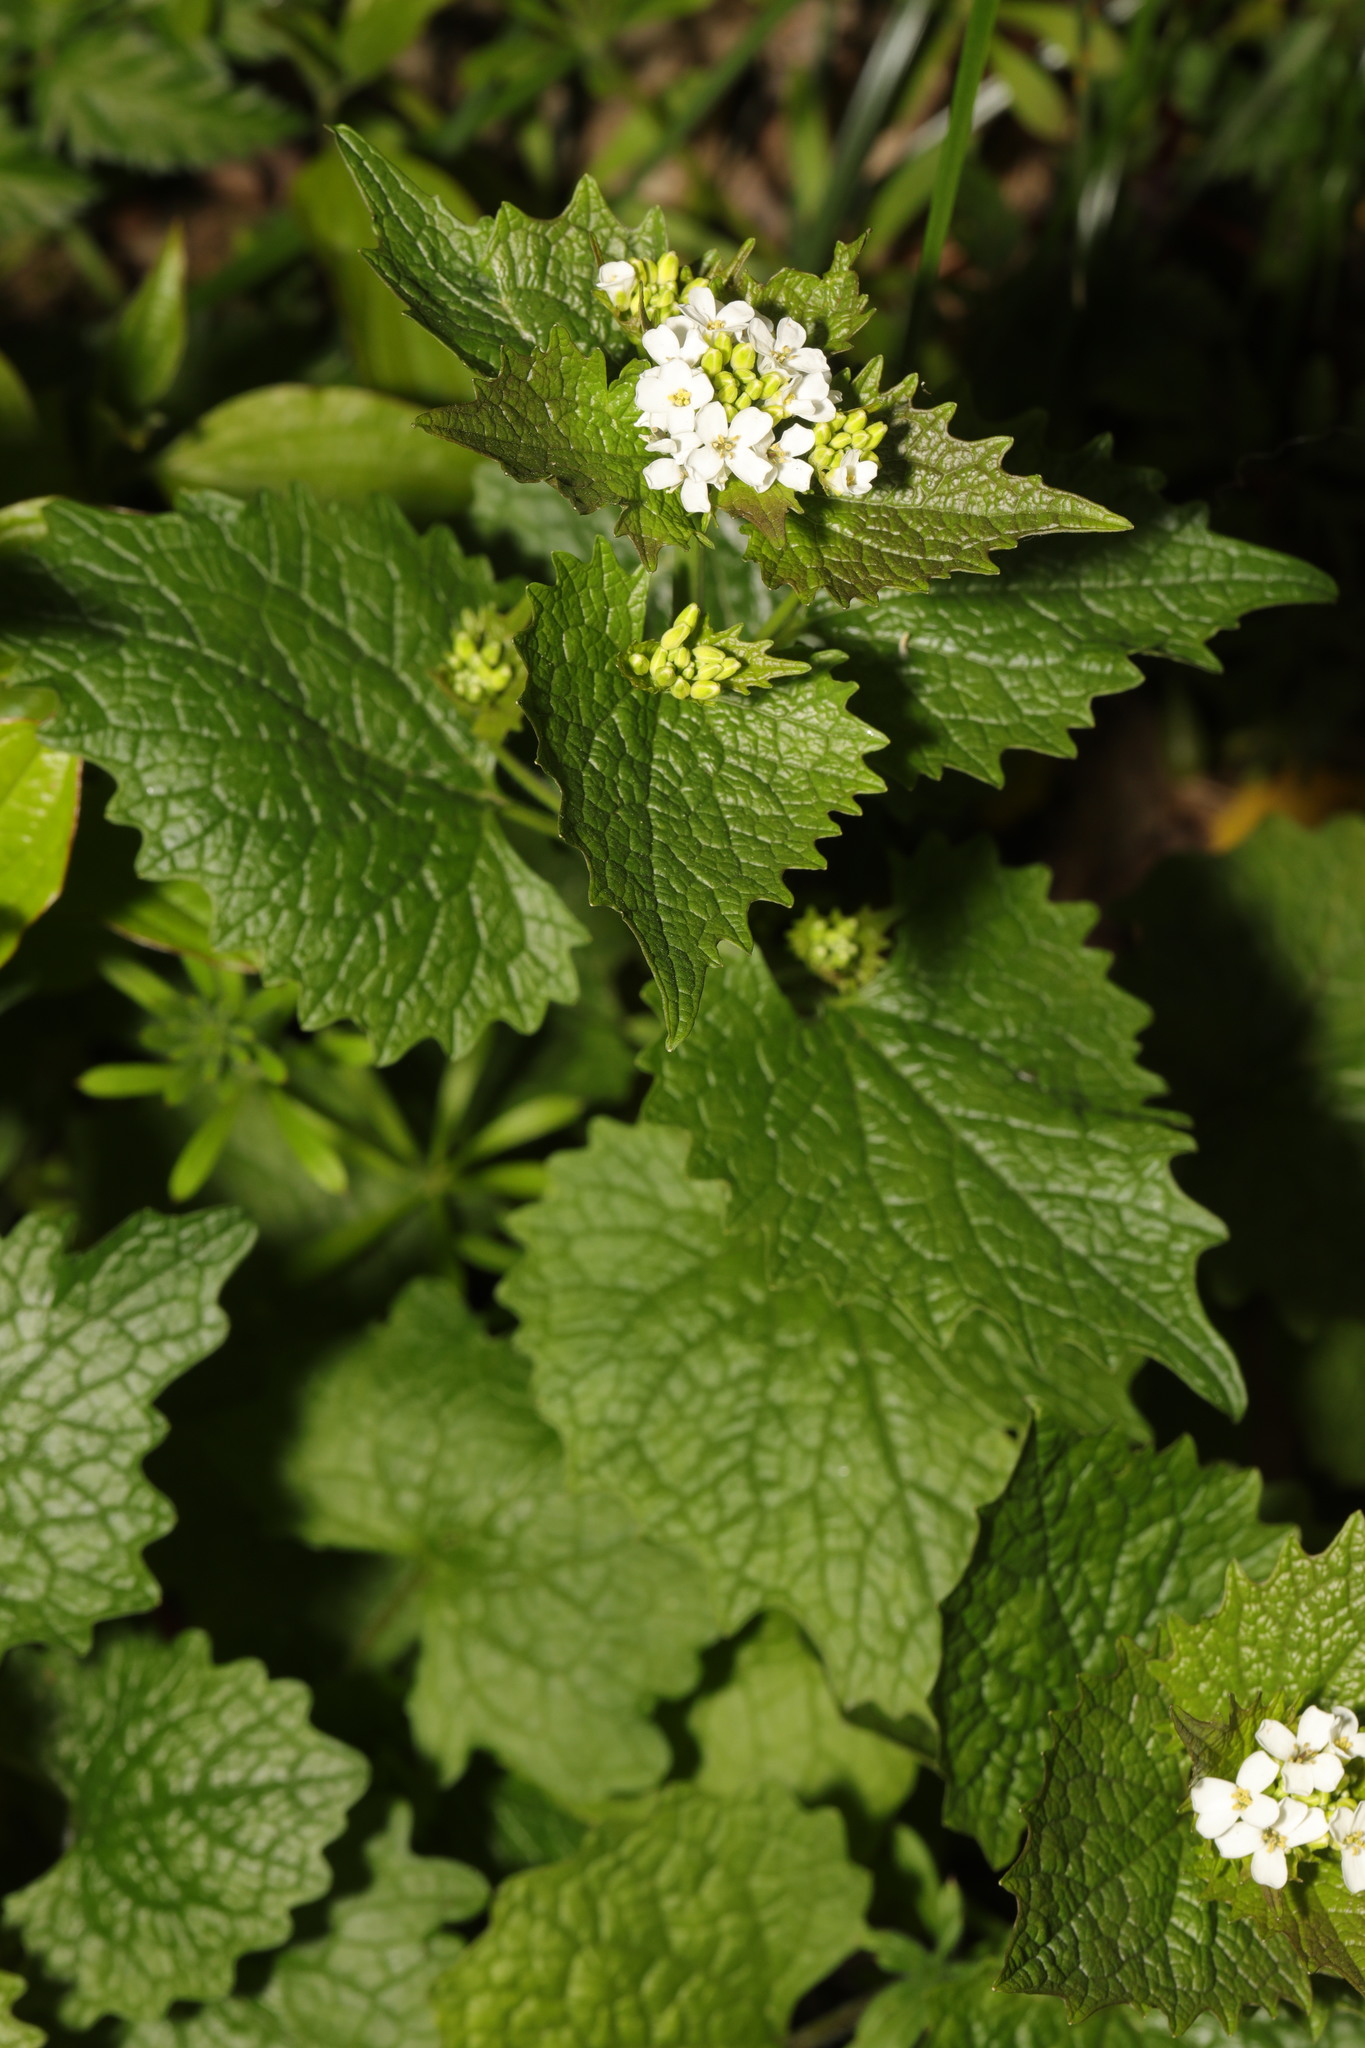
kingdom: Plantae
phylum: Tracheophyta
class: Magnoliopsida
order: Brassicales
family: Brassicaceae
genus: Alliaria
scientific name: Alliaria petiolata
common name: Garlic mustard
